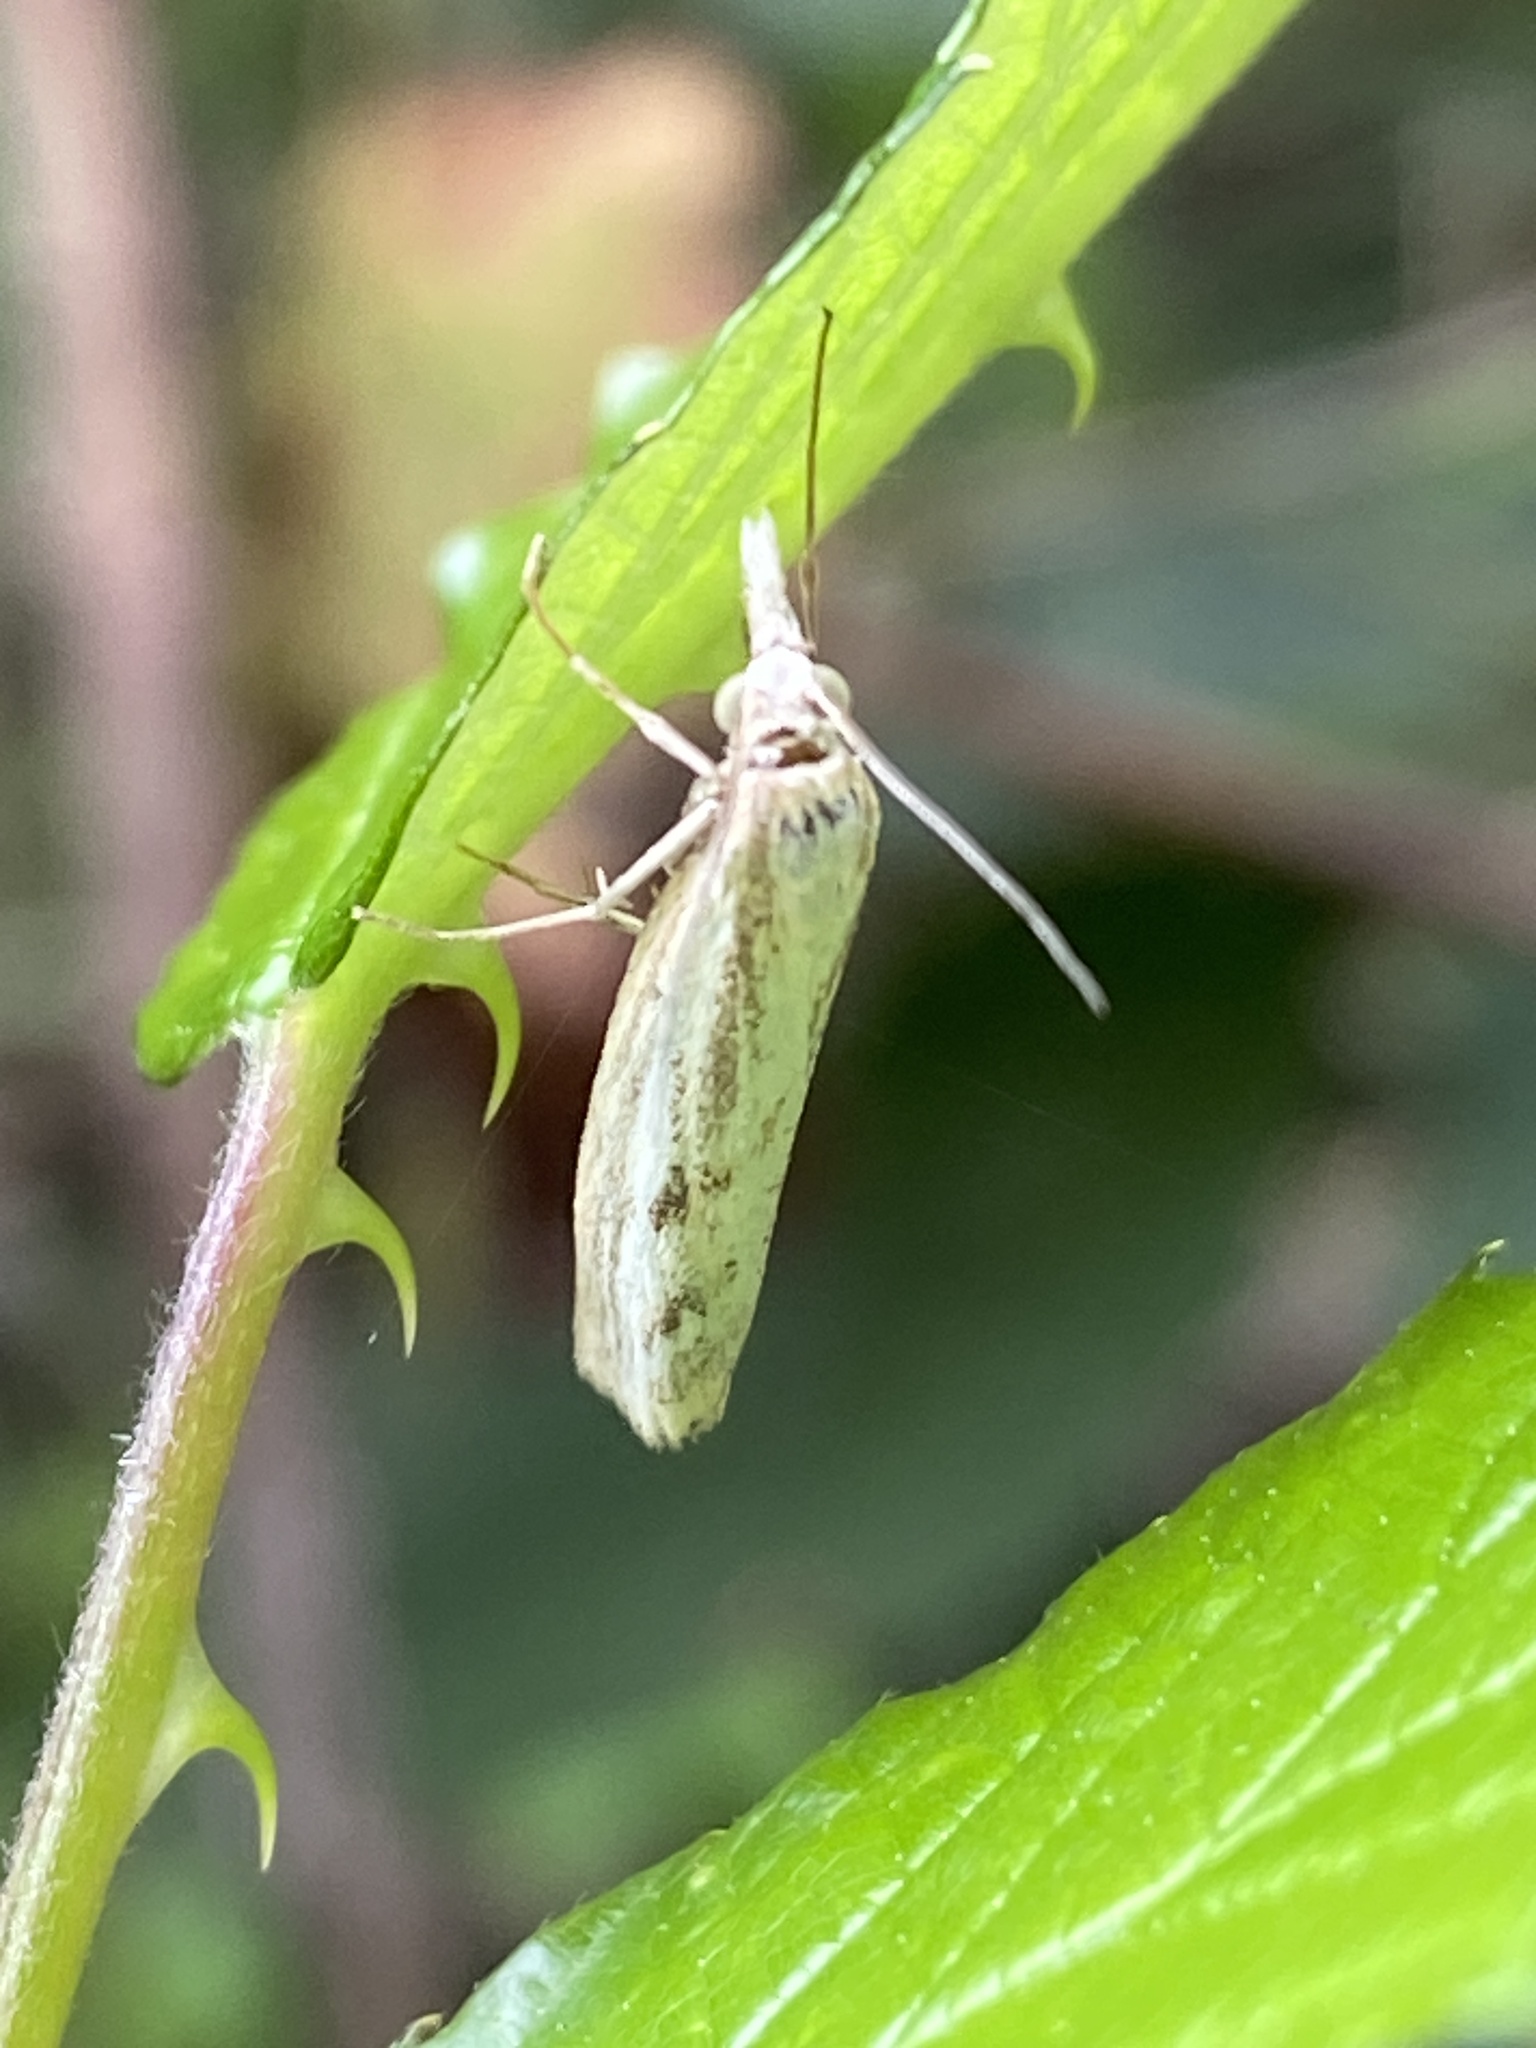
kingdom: Animalia
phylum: Arthropoda
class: Insecta
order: Lepidoptera
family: Crambidae
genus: Agriphila
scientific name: Agriphila inquinatella
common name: Barred grass-veneer
